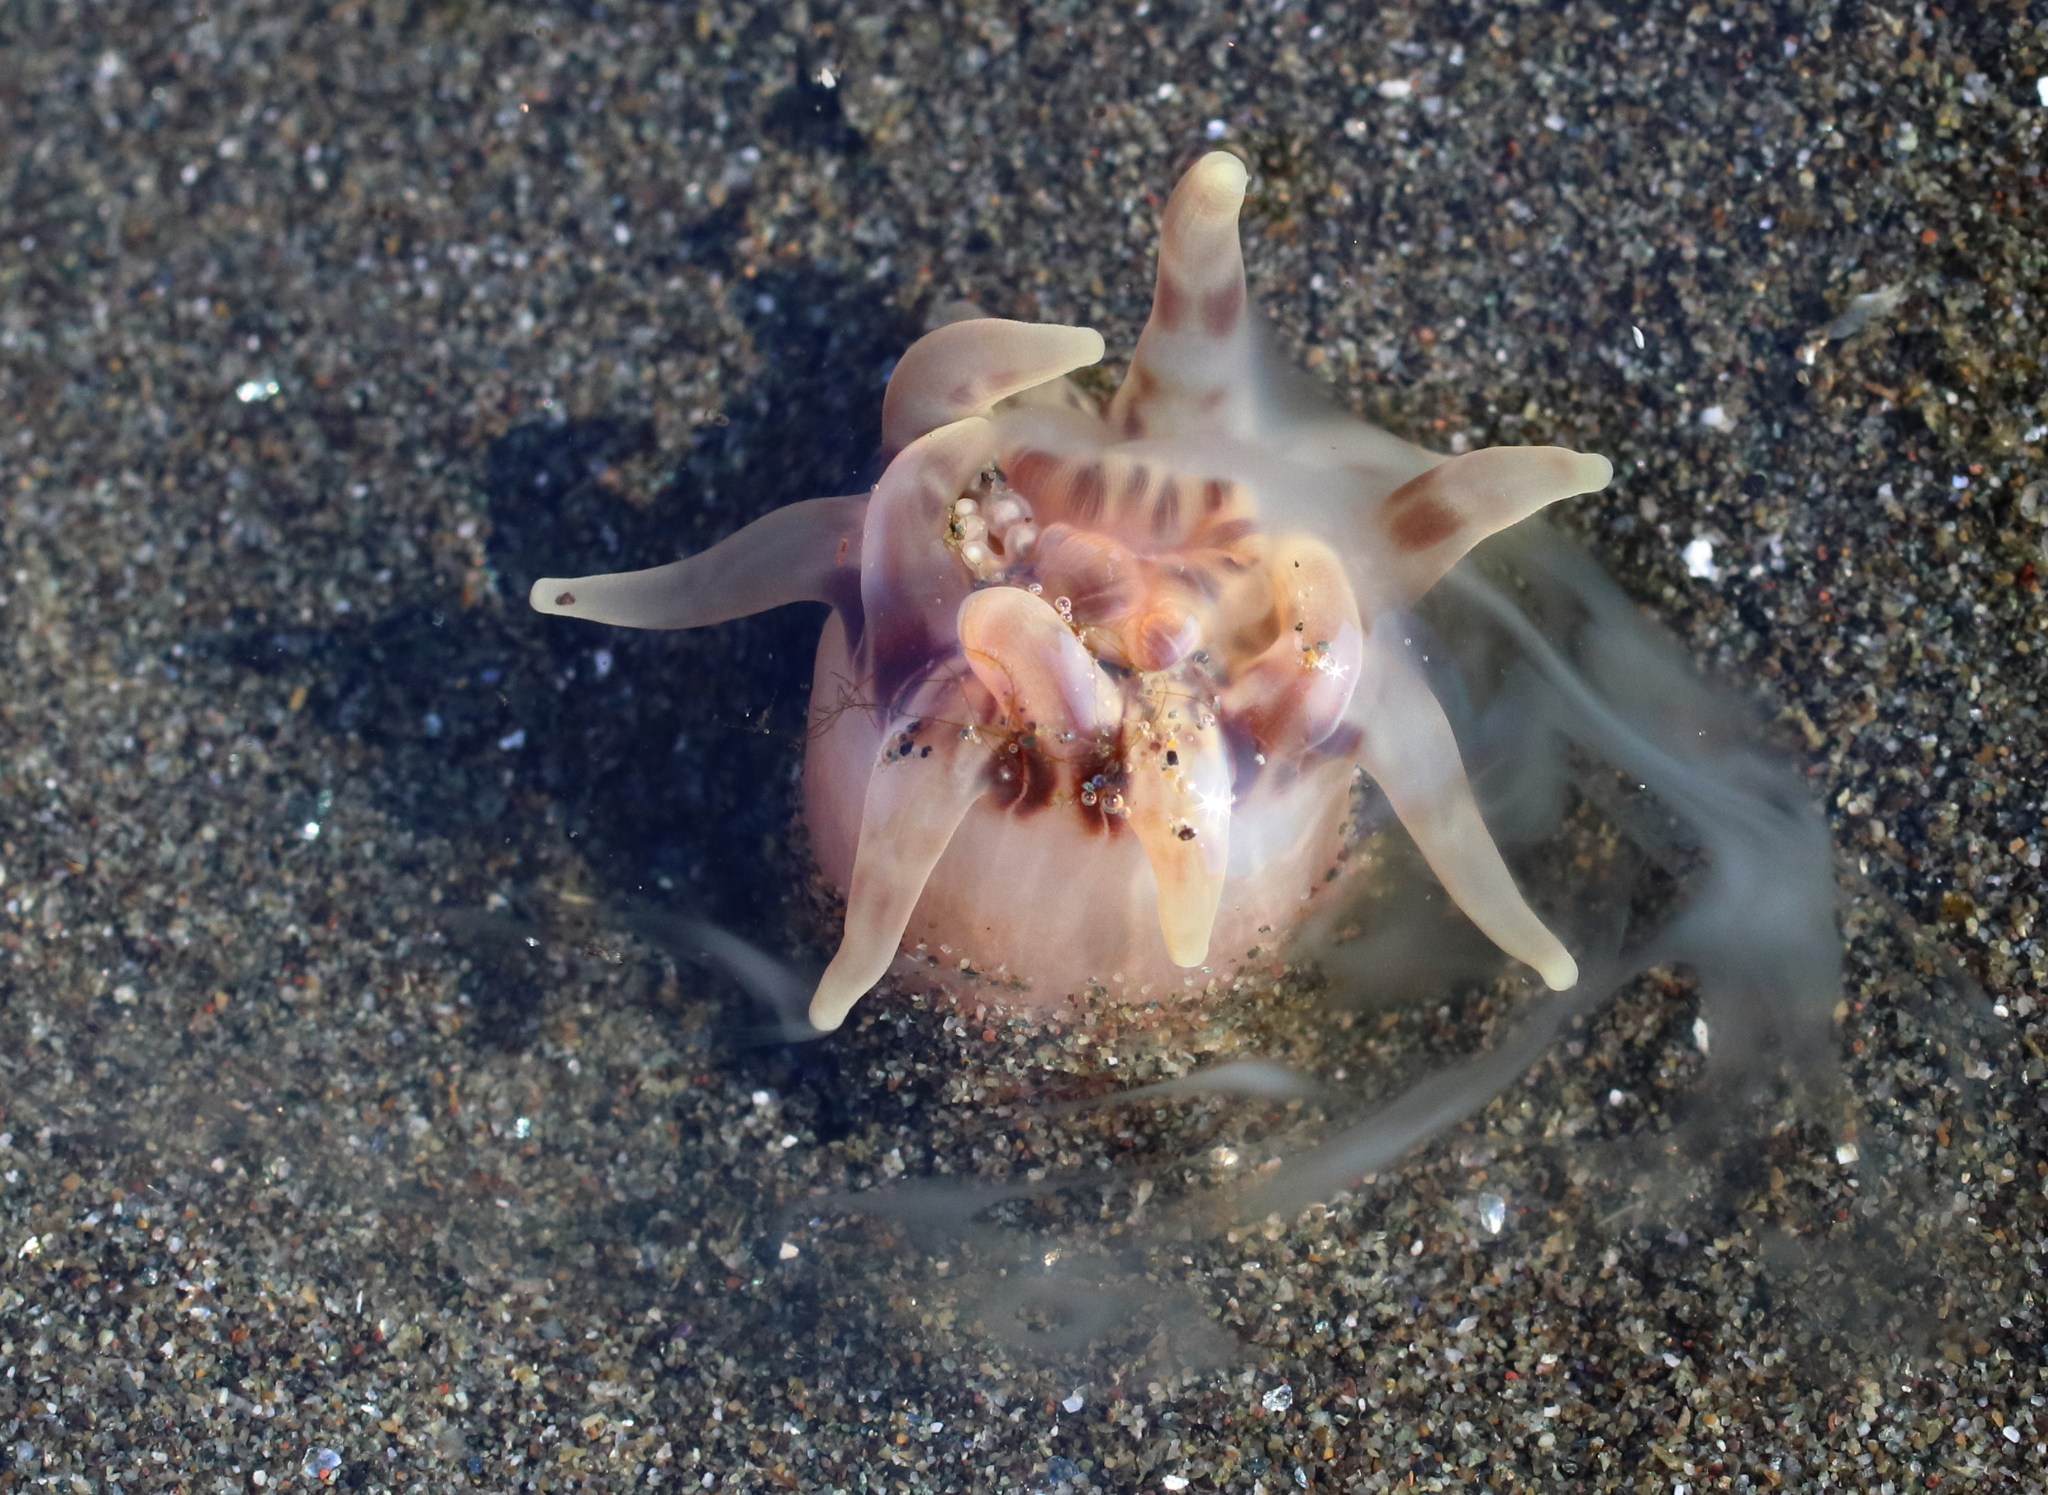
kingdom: Animalia
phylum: Cnidaria
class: Anthozoa
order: Actiniaria
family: Peachiidae
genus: Peachia
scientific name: Peachia quinquecapitata
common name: Twelve-tentacled parasitic anemone
